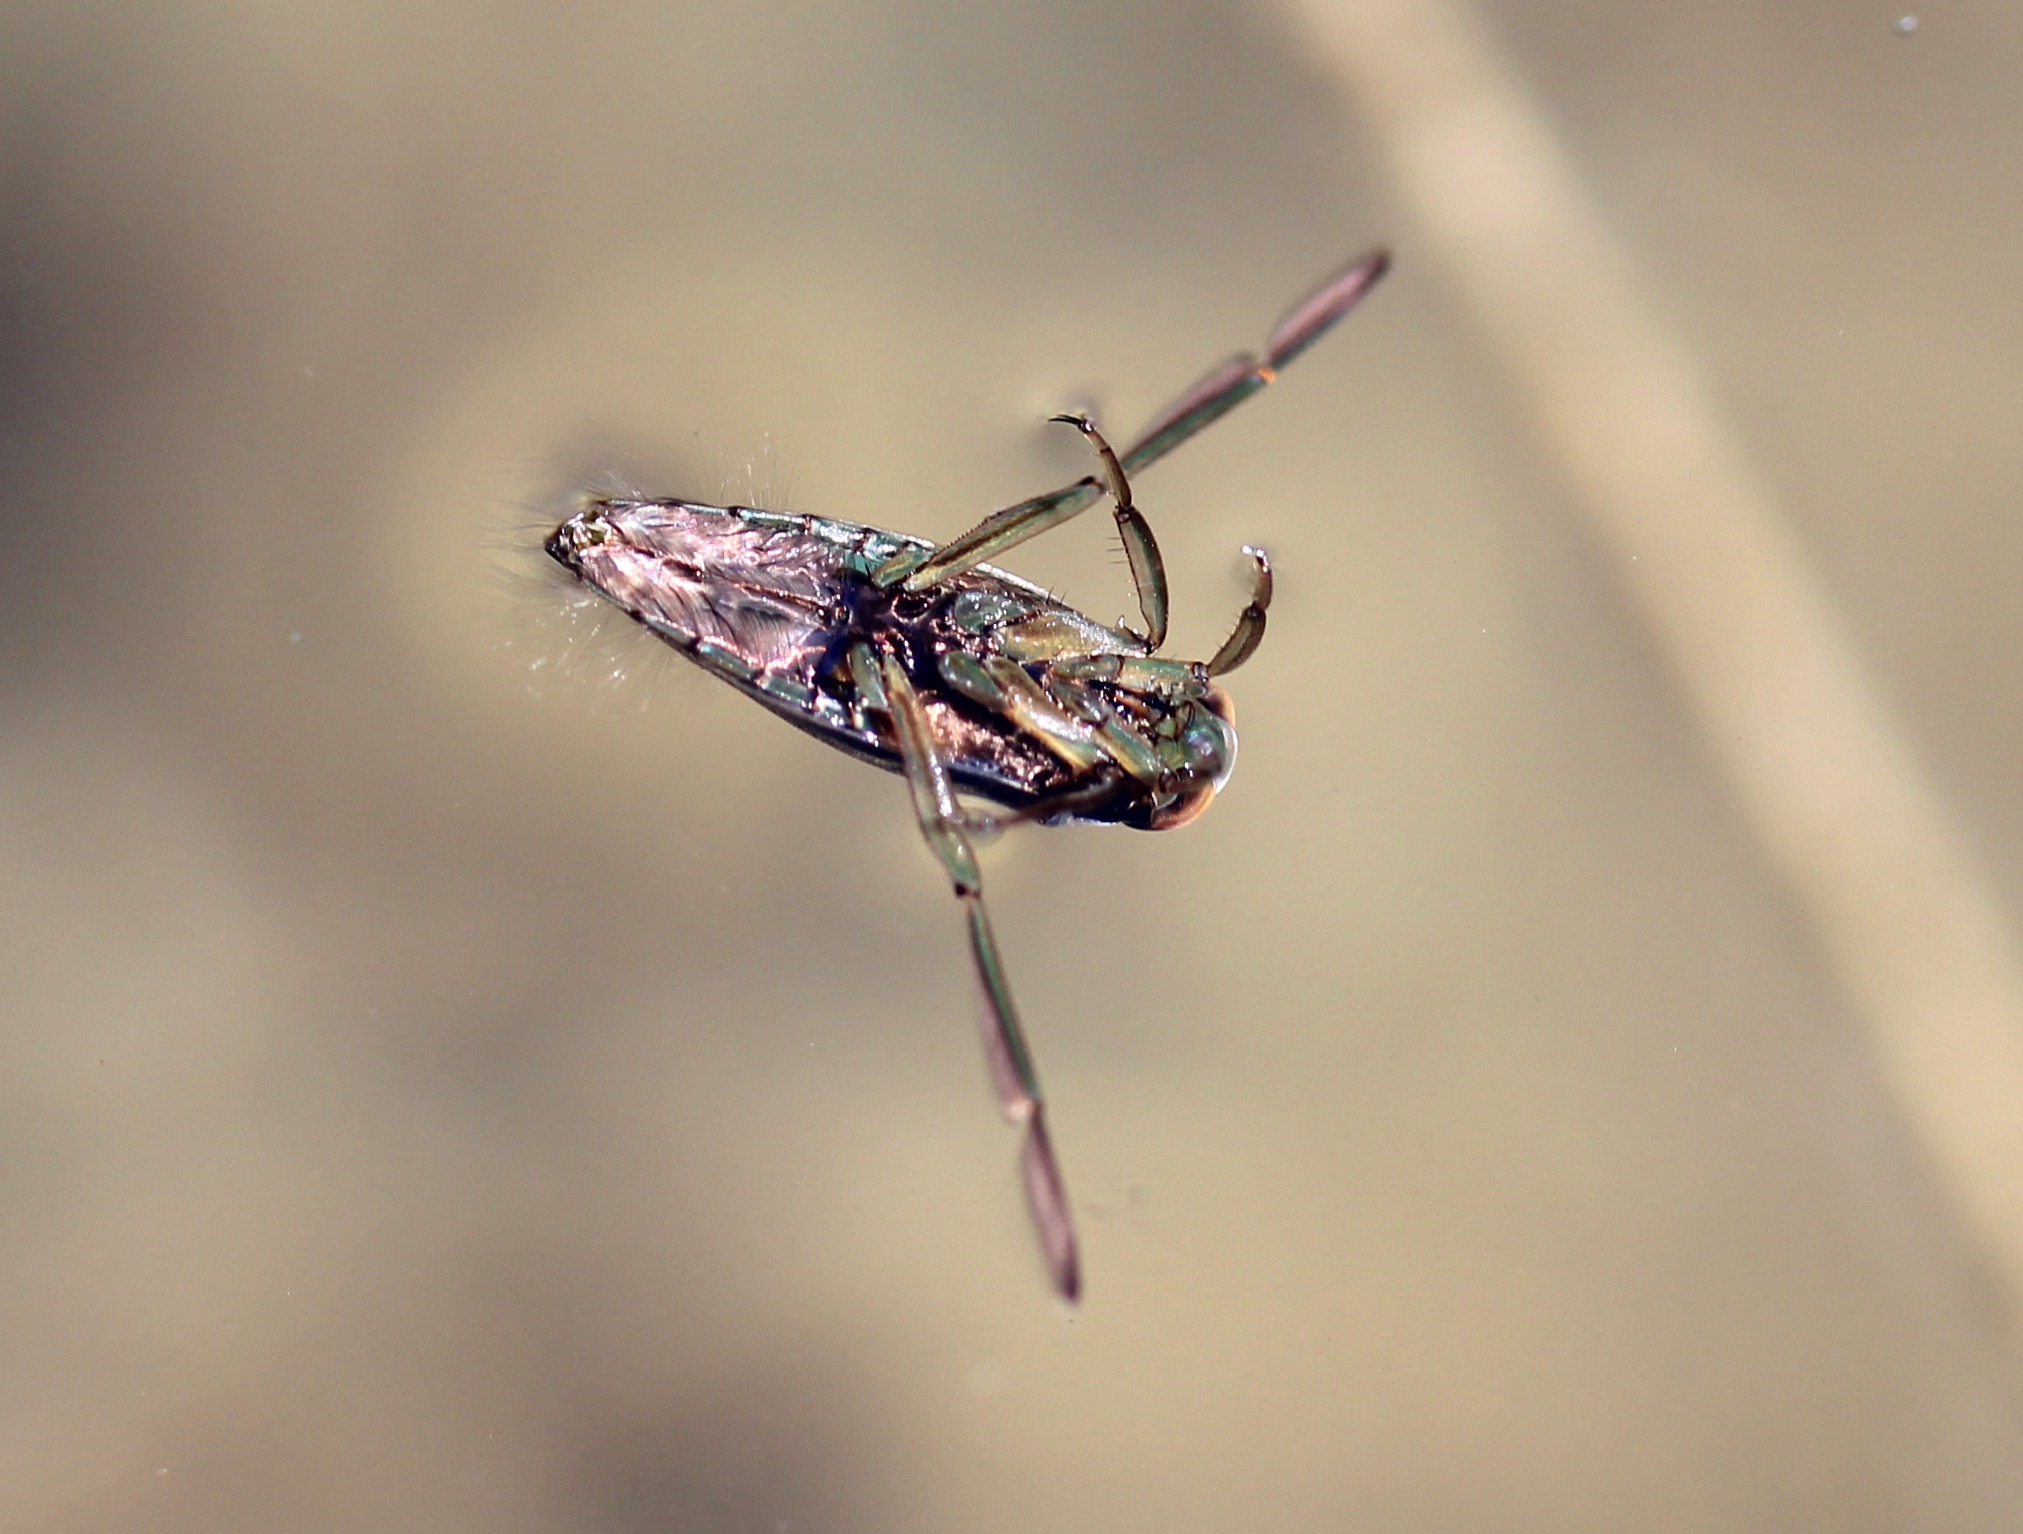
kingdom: Animalia
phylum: Arthropoda
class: Insecta
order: Hemiptera
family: Notonectidae
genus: Notonecta
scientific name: Notonecta
